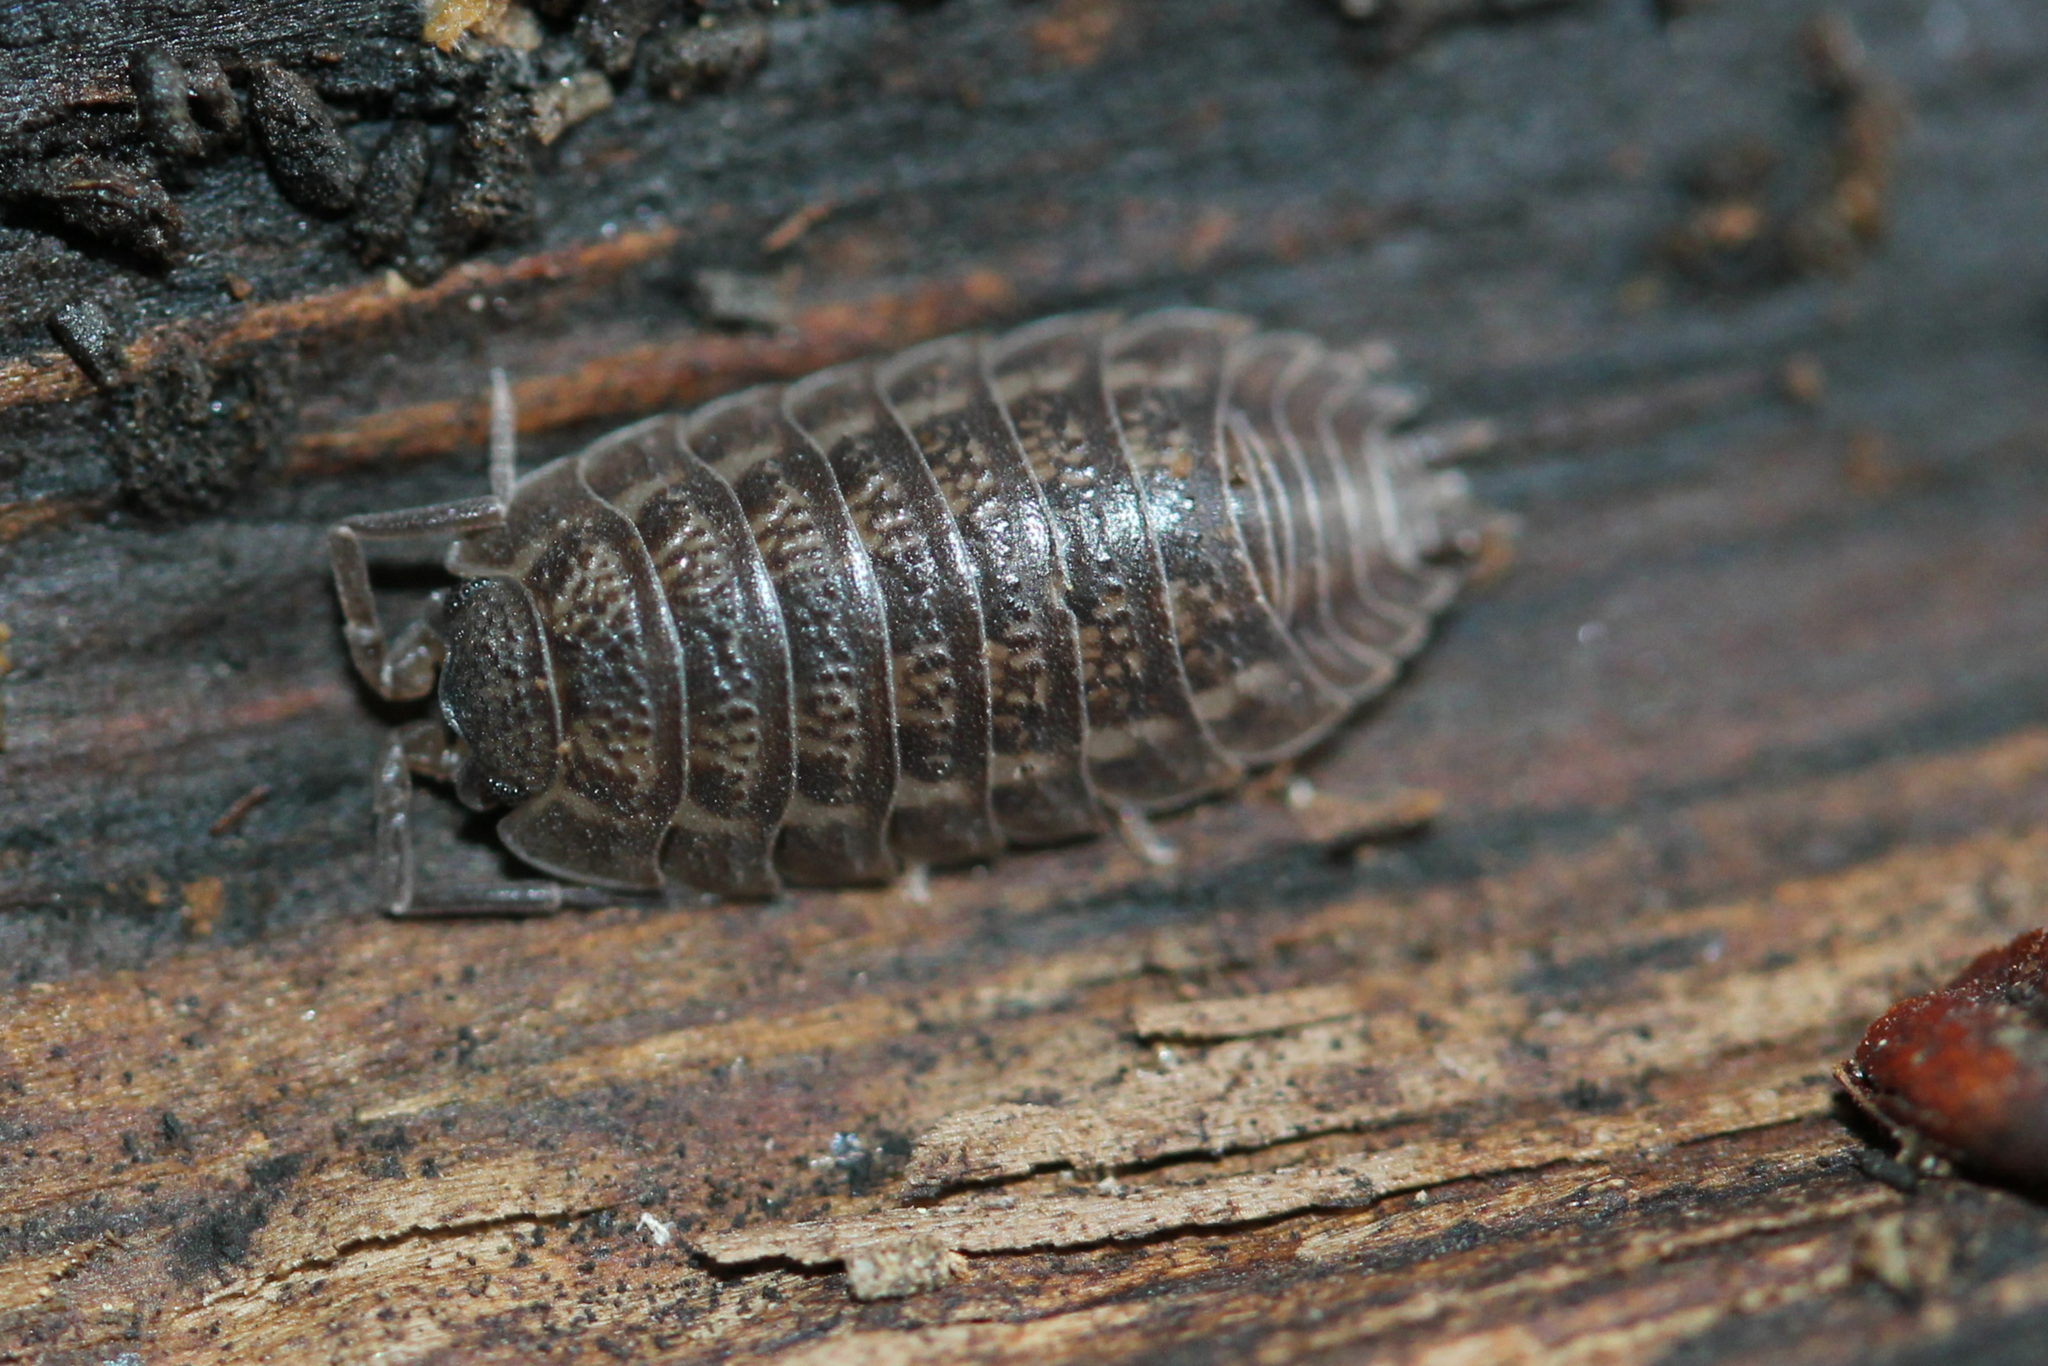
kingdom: Animalia
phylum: Arthropoda
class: Malacostraca
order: Isopoda
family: Trachelipodidae
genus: Trachelipus
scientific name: Trachelipus rathkii
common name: Isopod
